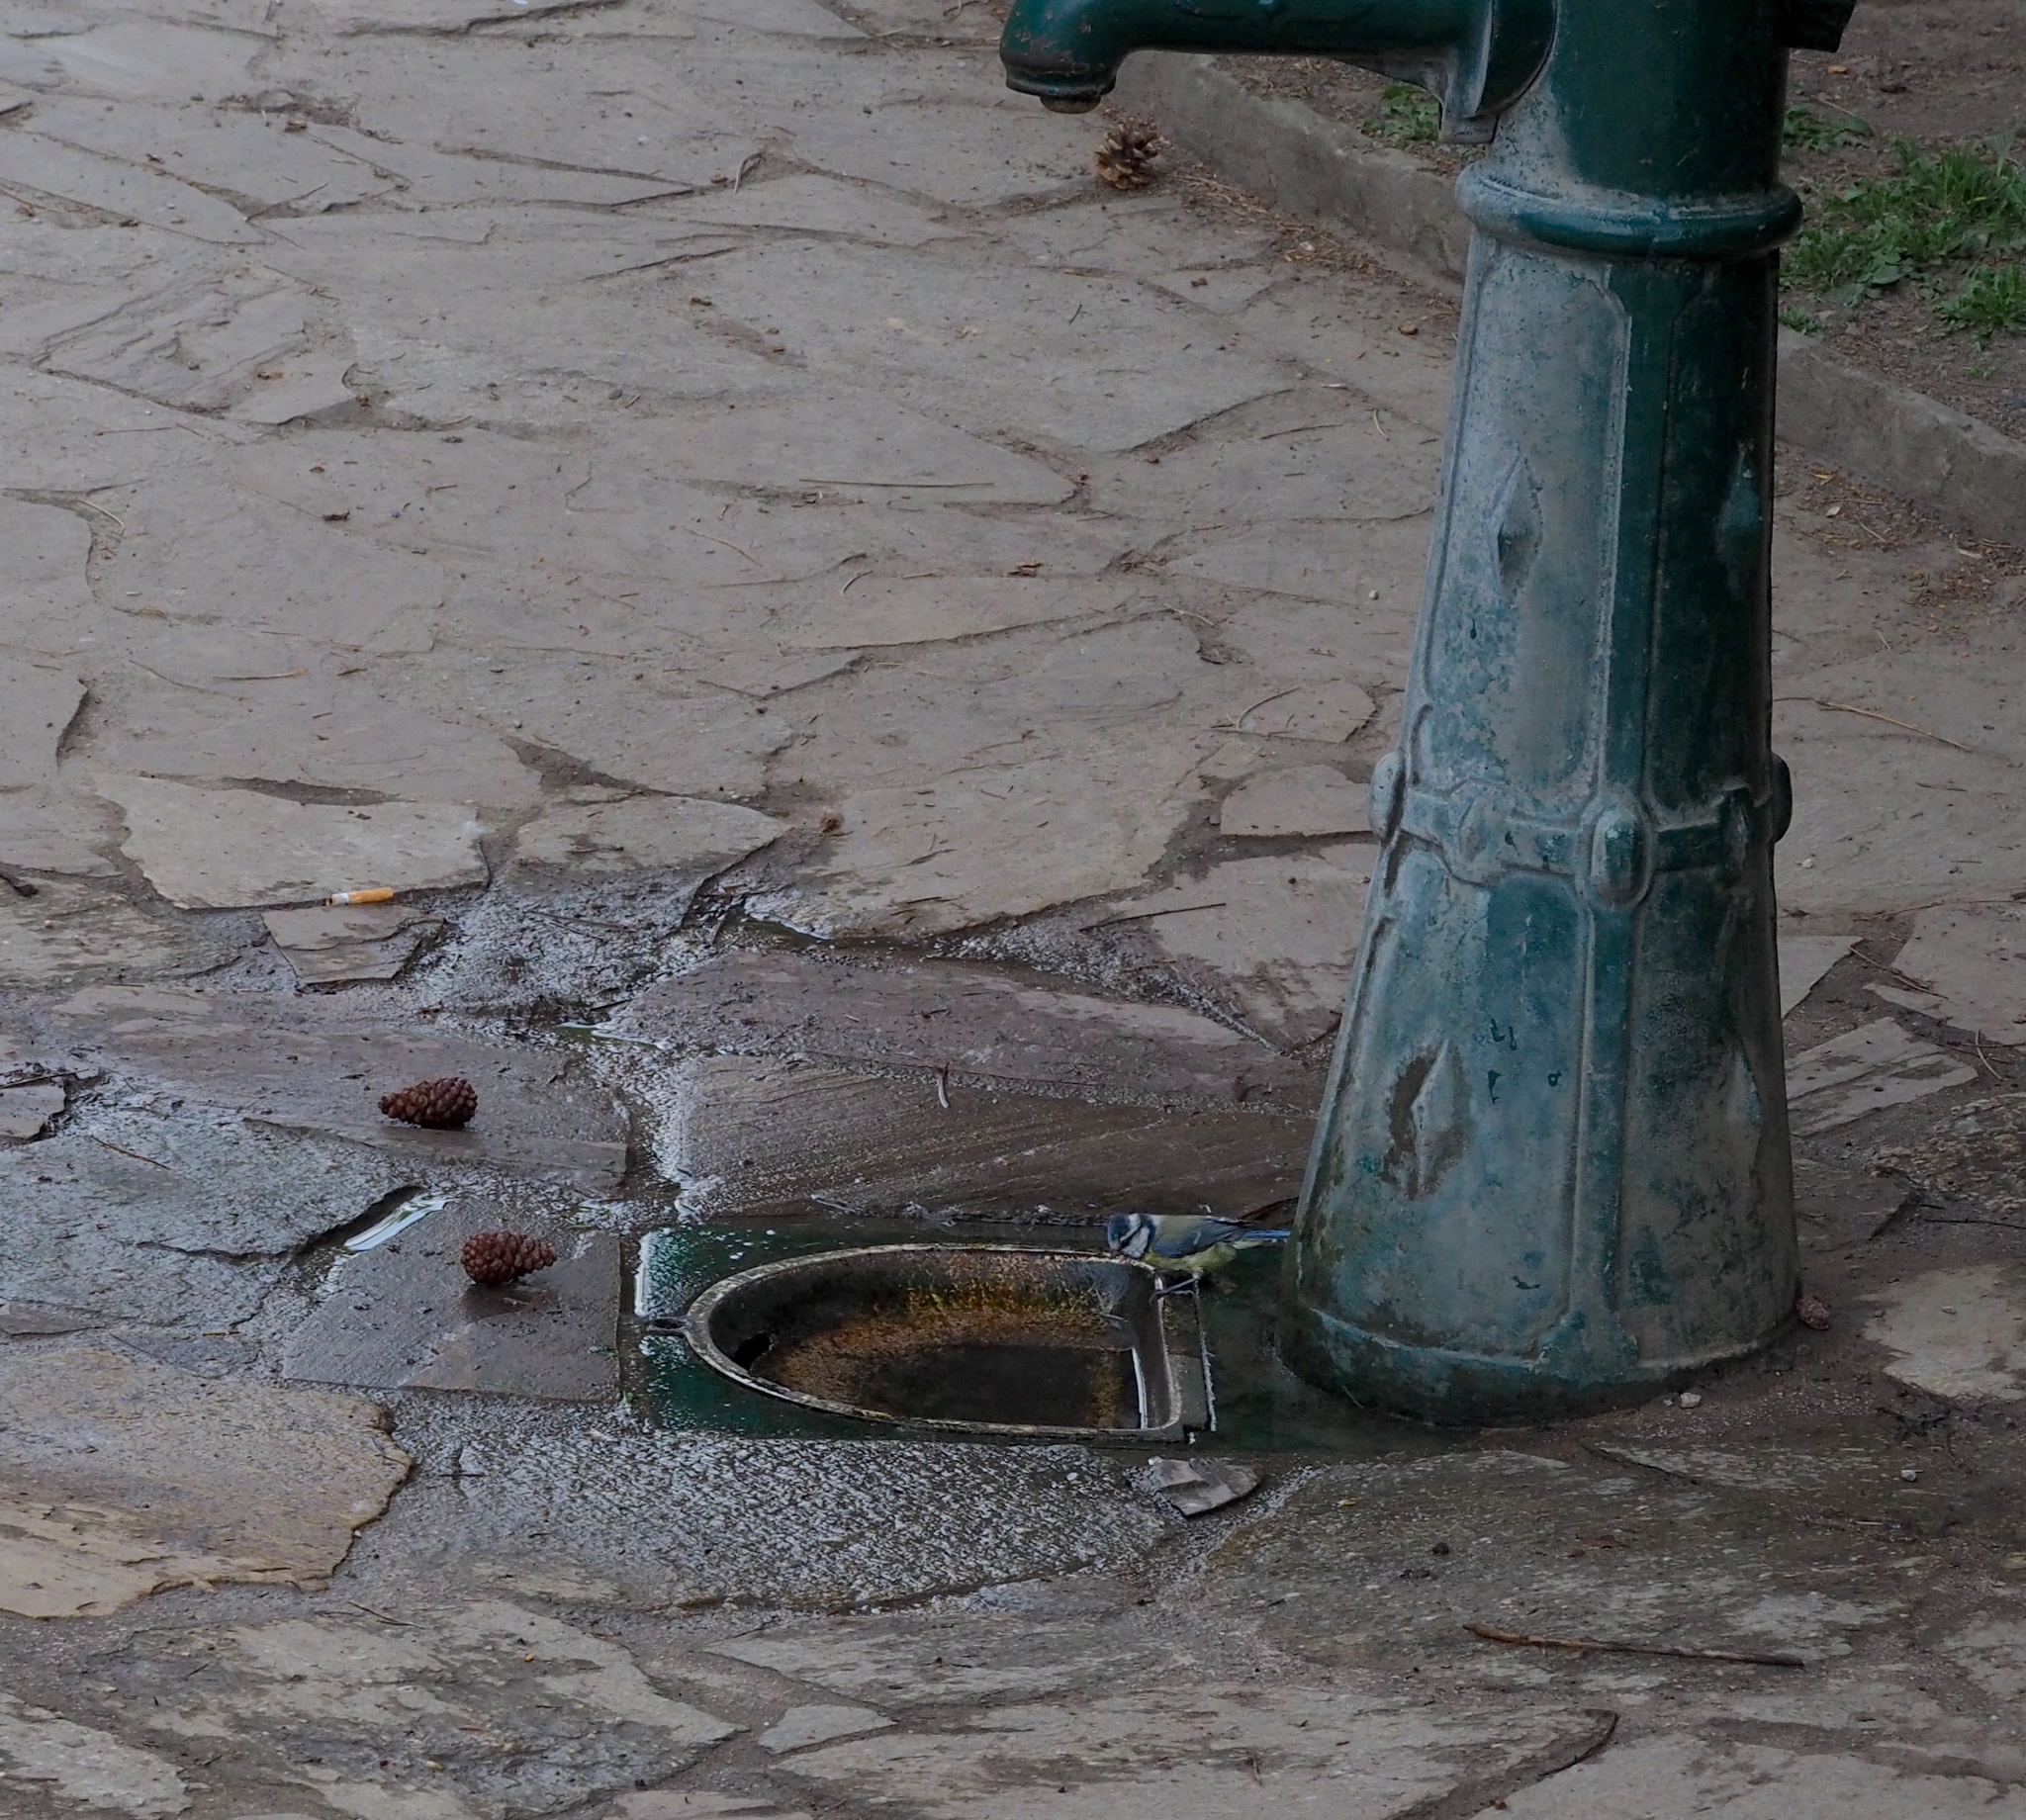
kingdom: Animalia
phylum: Chordata
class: Aves
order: Passeriformes
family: Paridae
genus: Cyanistes
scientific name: Cyanistes caeruleus
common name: Eurasian blue tit
